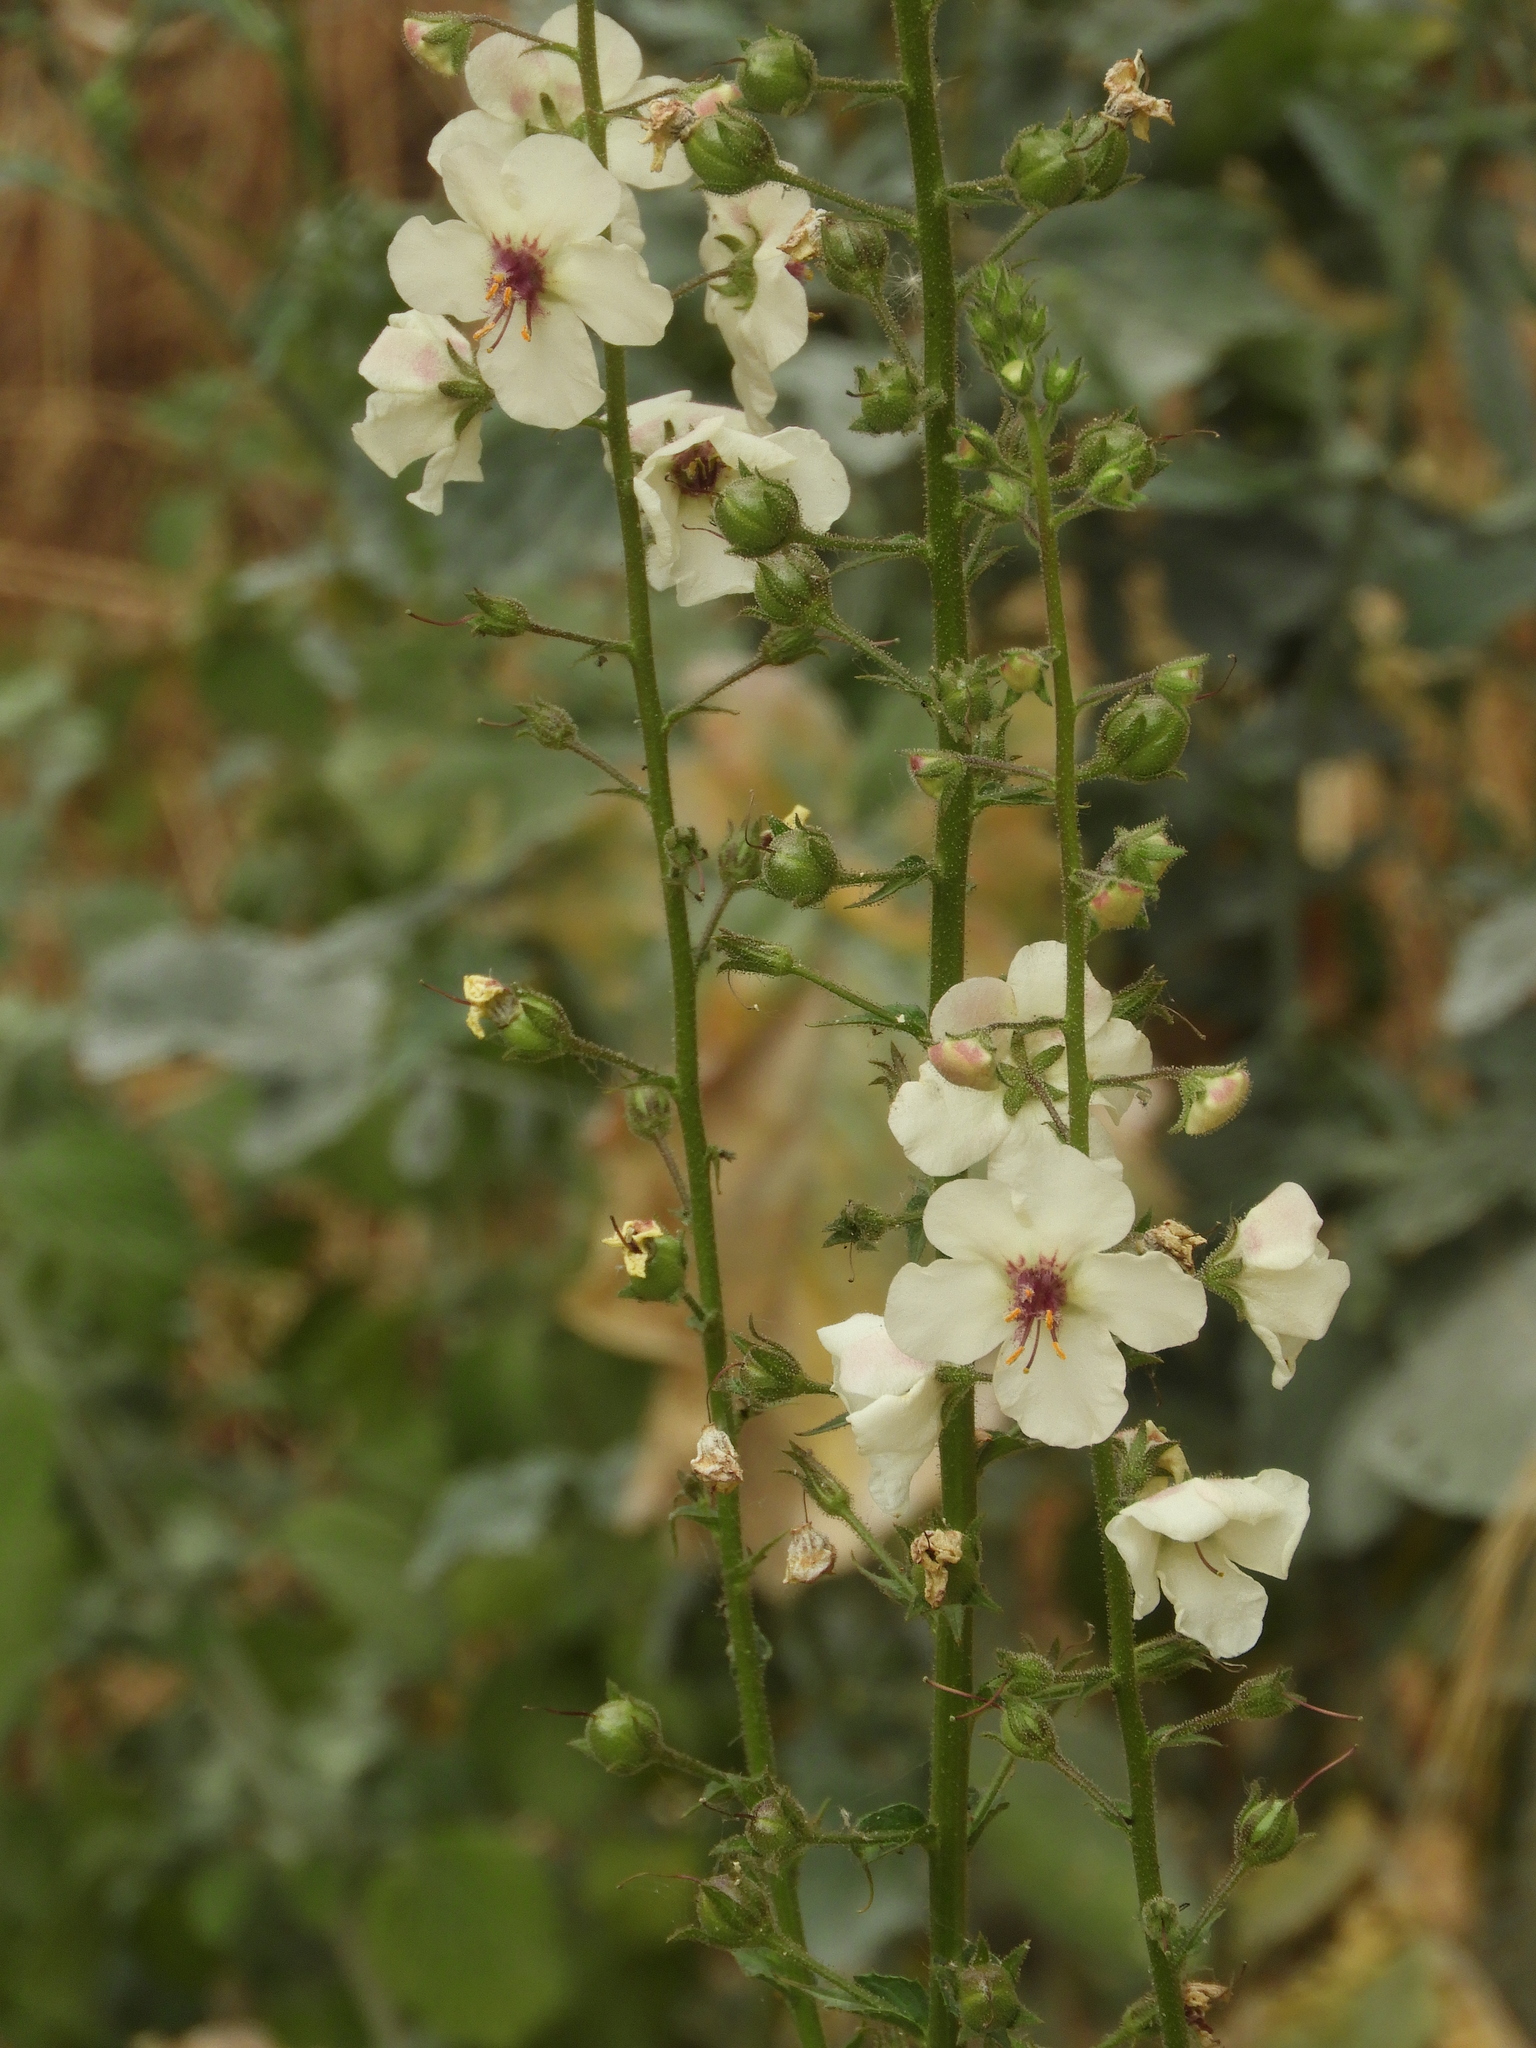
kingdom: Plantae
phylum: Tracheophyta
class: Magnoliopsida
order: Lamiales
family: Scrophulariaceae
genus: Verbascum
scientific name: Verbascum blattaria
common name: Moth mullein
